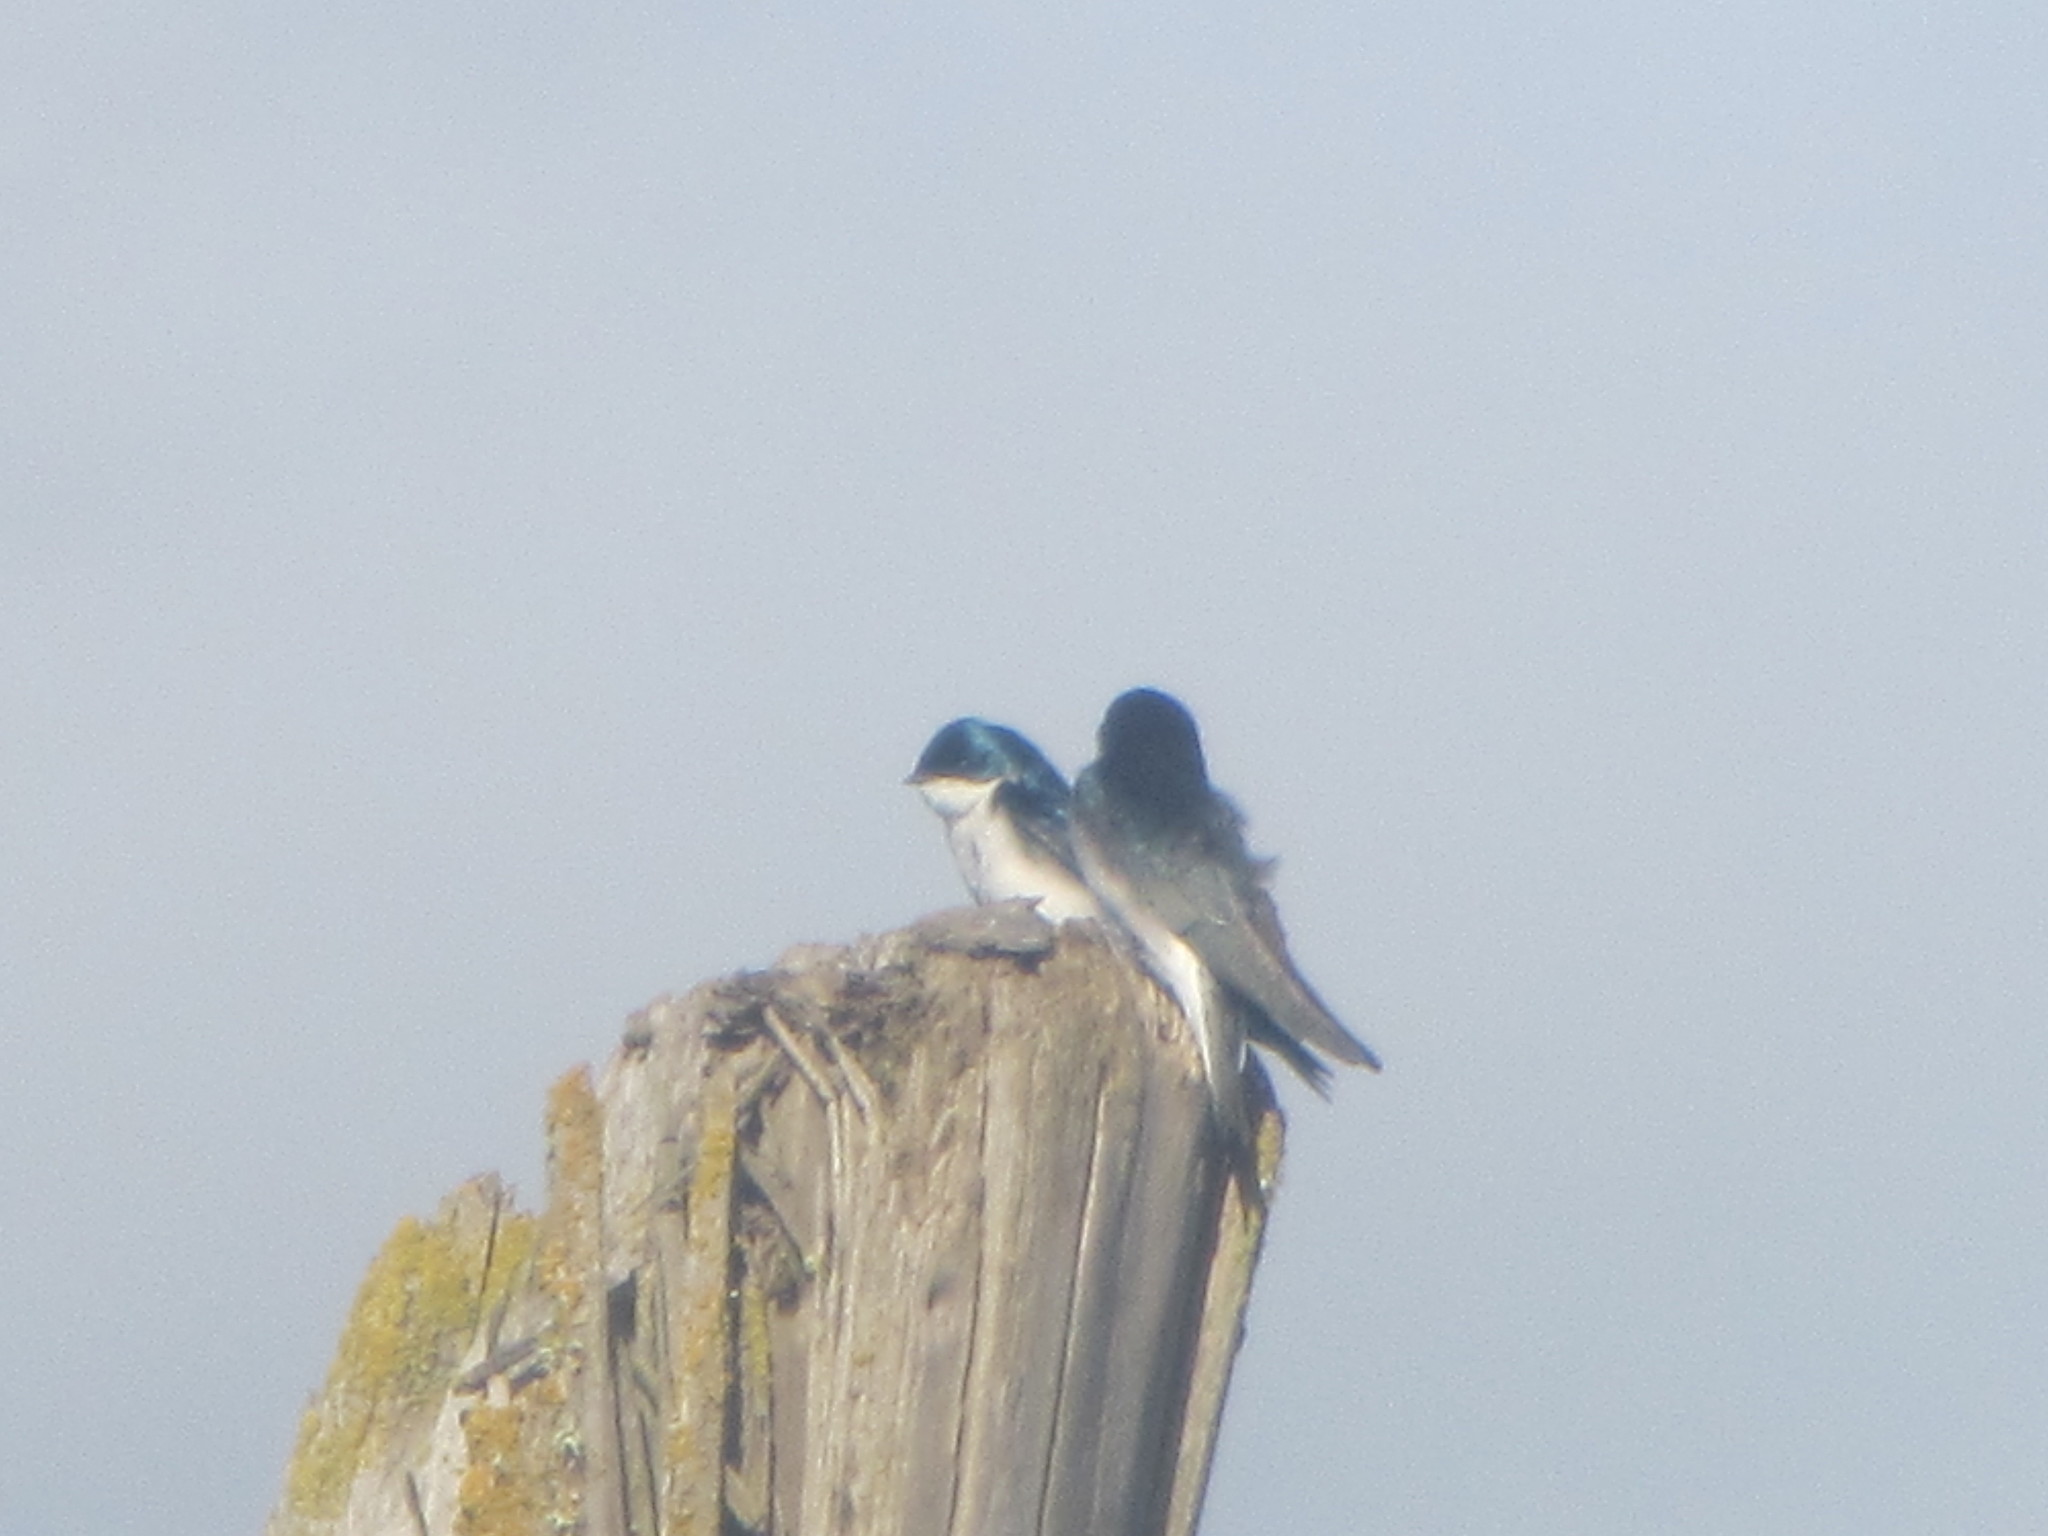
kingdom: Animalia
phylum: Chordata
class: Aves
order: Passeriformes
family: Hirundinidae
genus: Tachycineta
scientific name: Tachycineta bicolor
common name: Tree swallow
